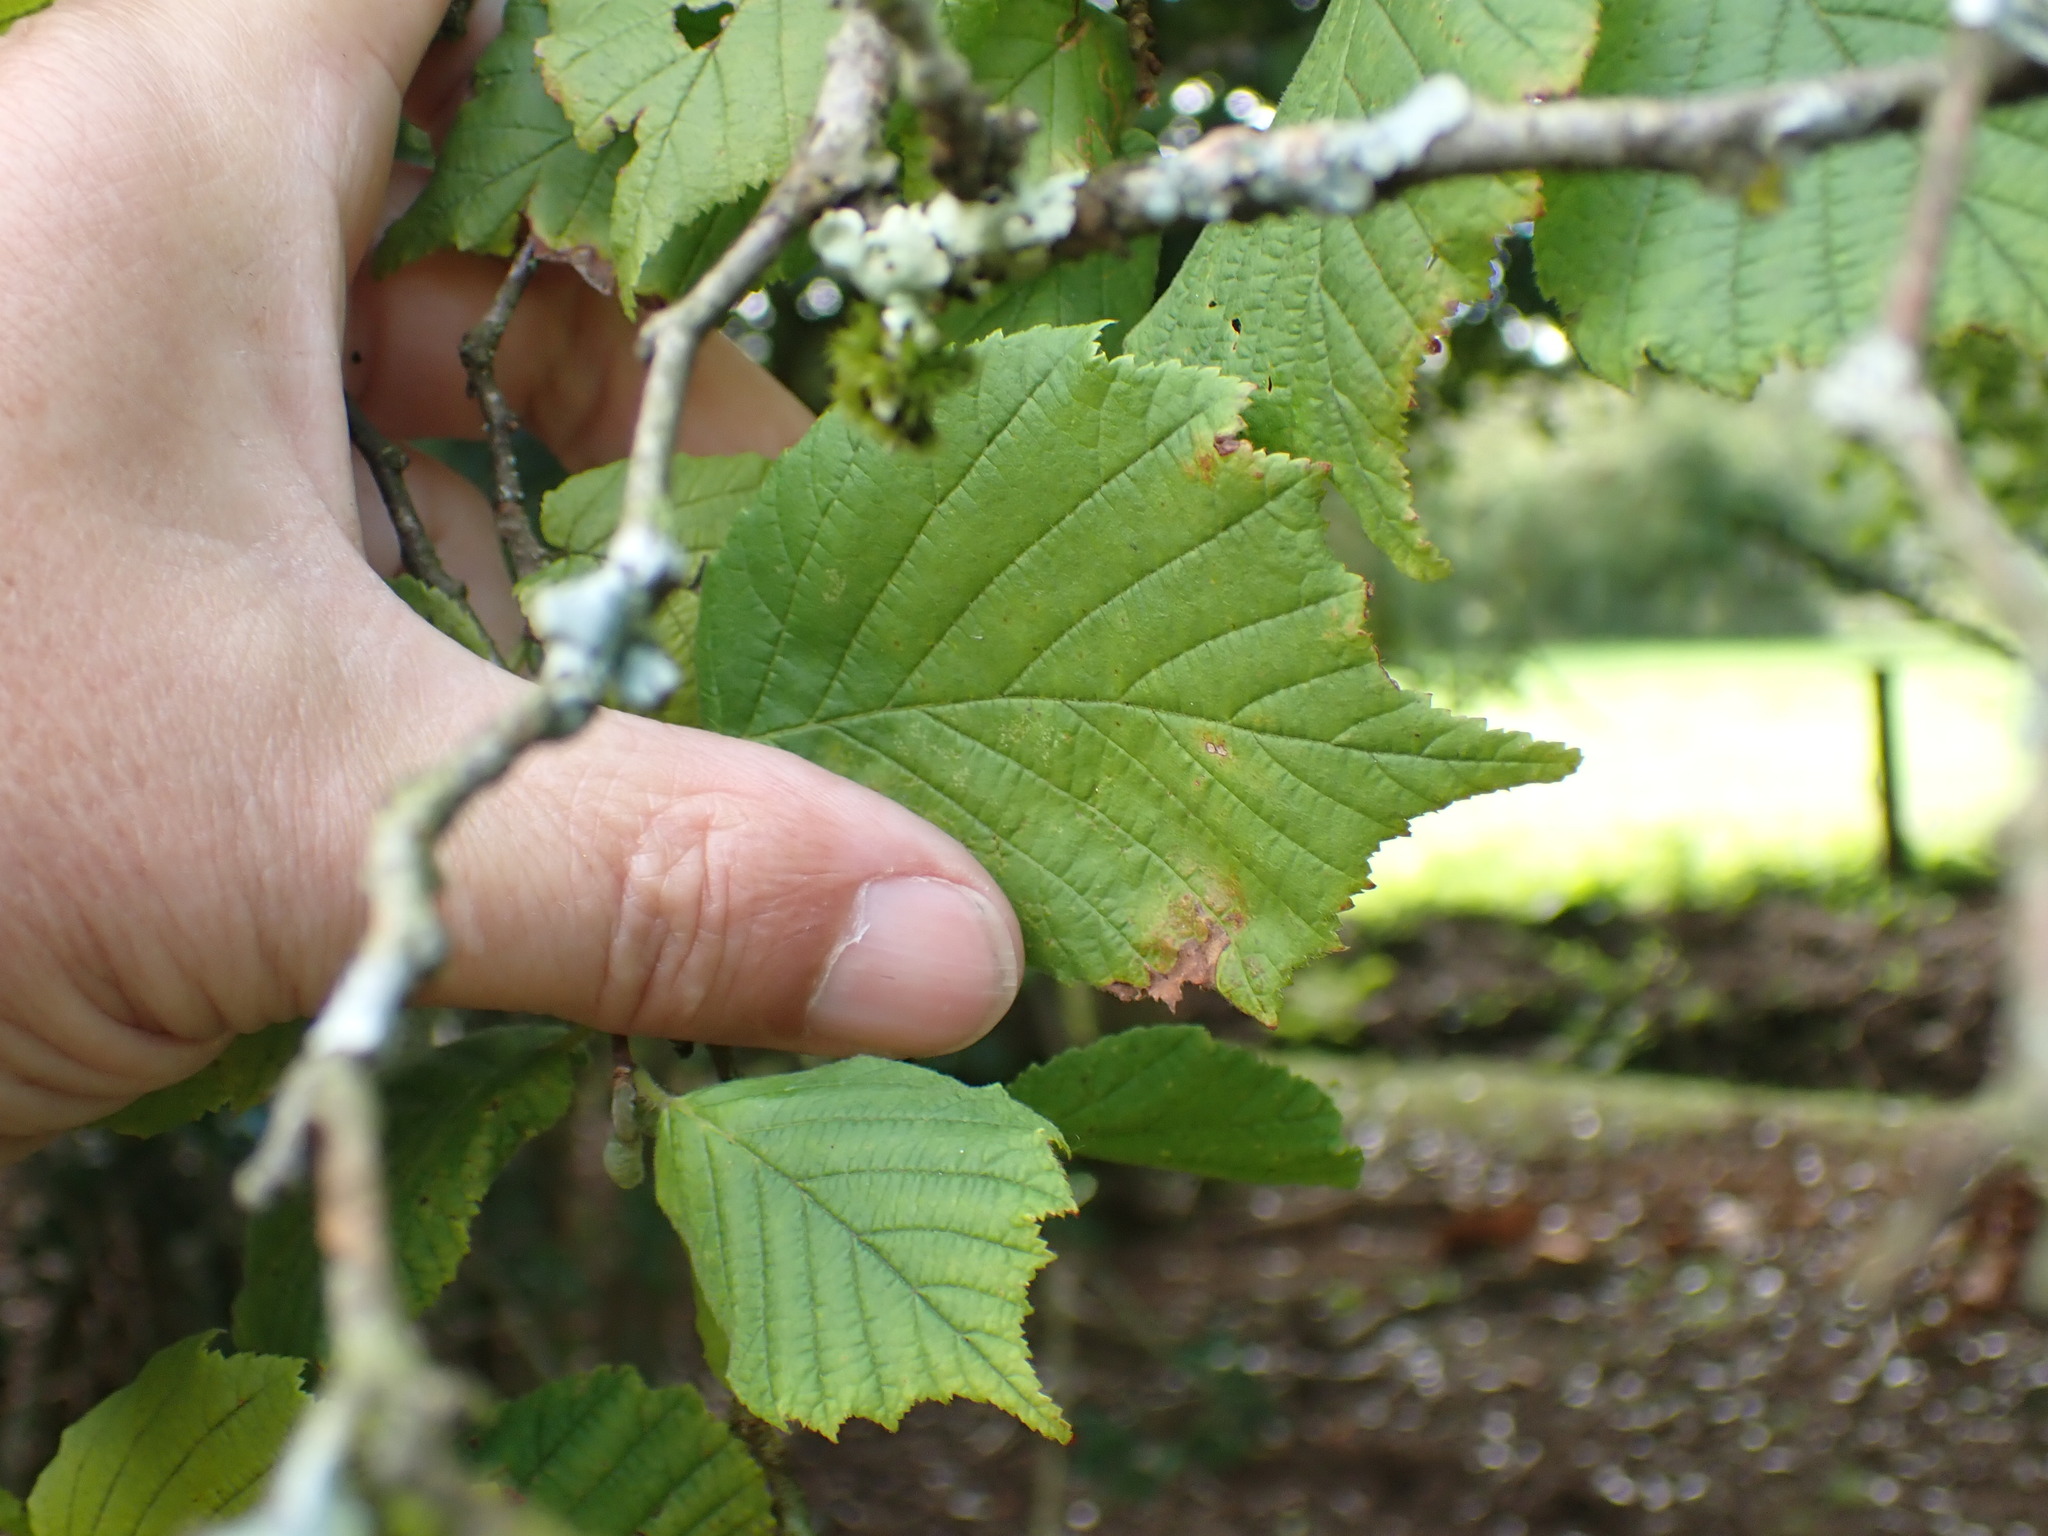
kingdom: Plantae
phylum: Tracheophyta
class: Magnoliopsida
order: Fagales
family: Betulaceae
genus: Corylus
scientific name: Corylus avellana
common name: European hazel
